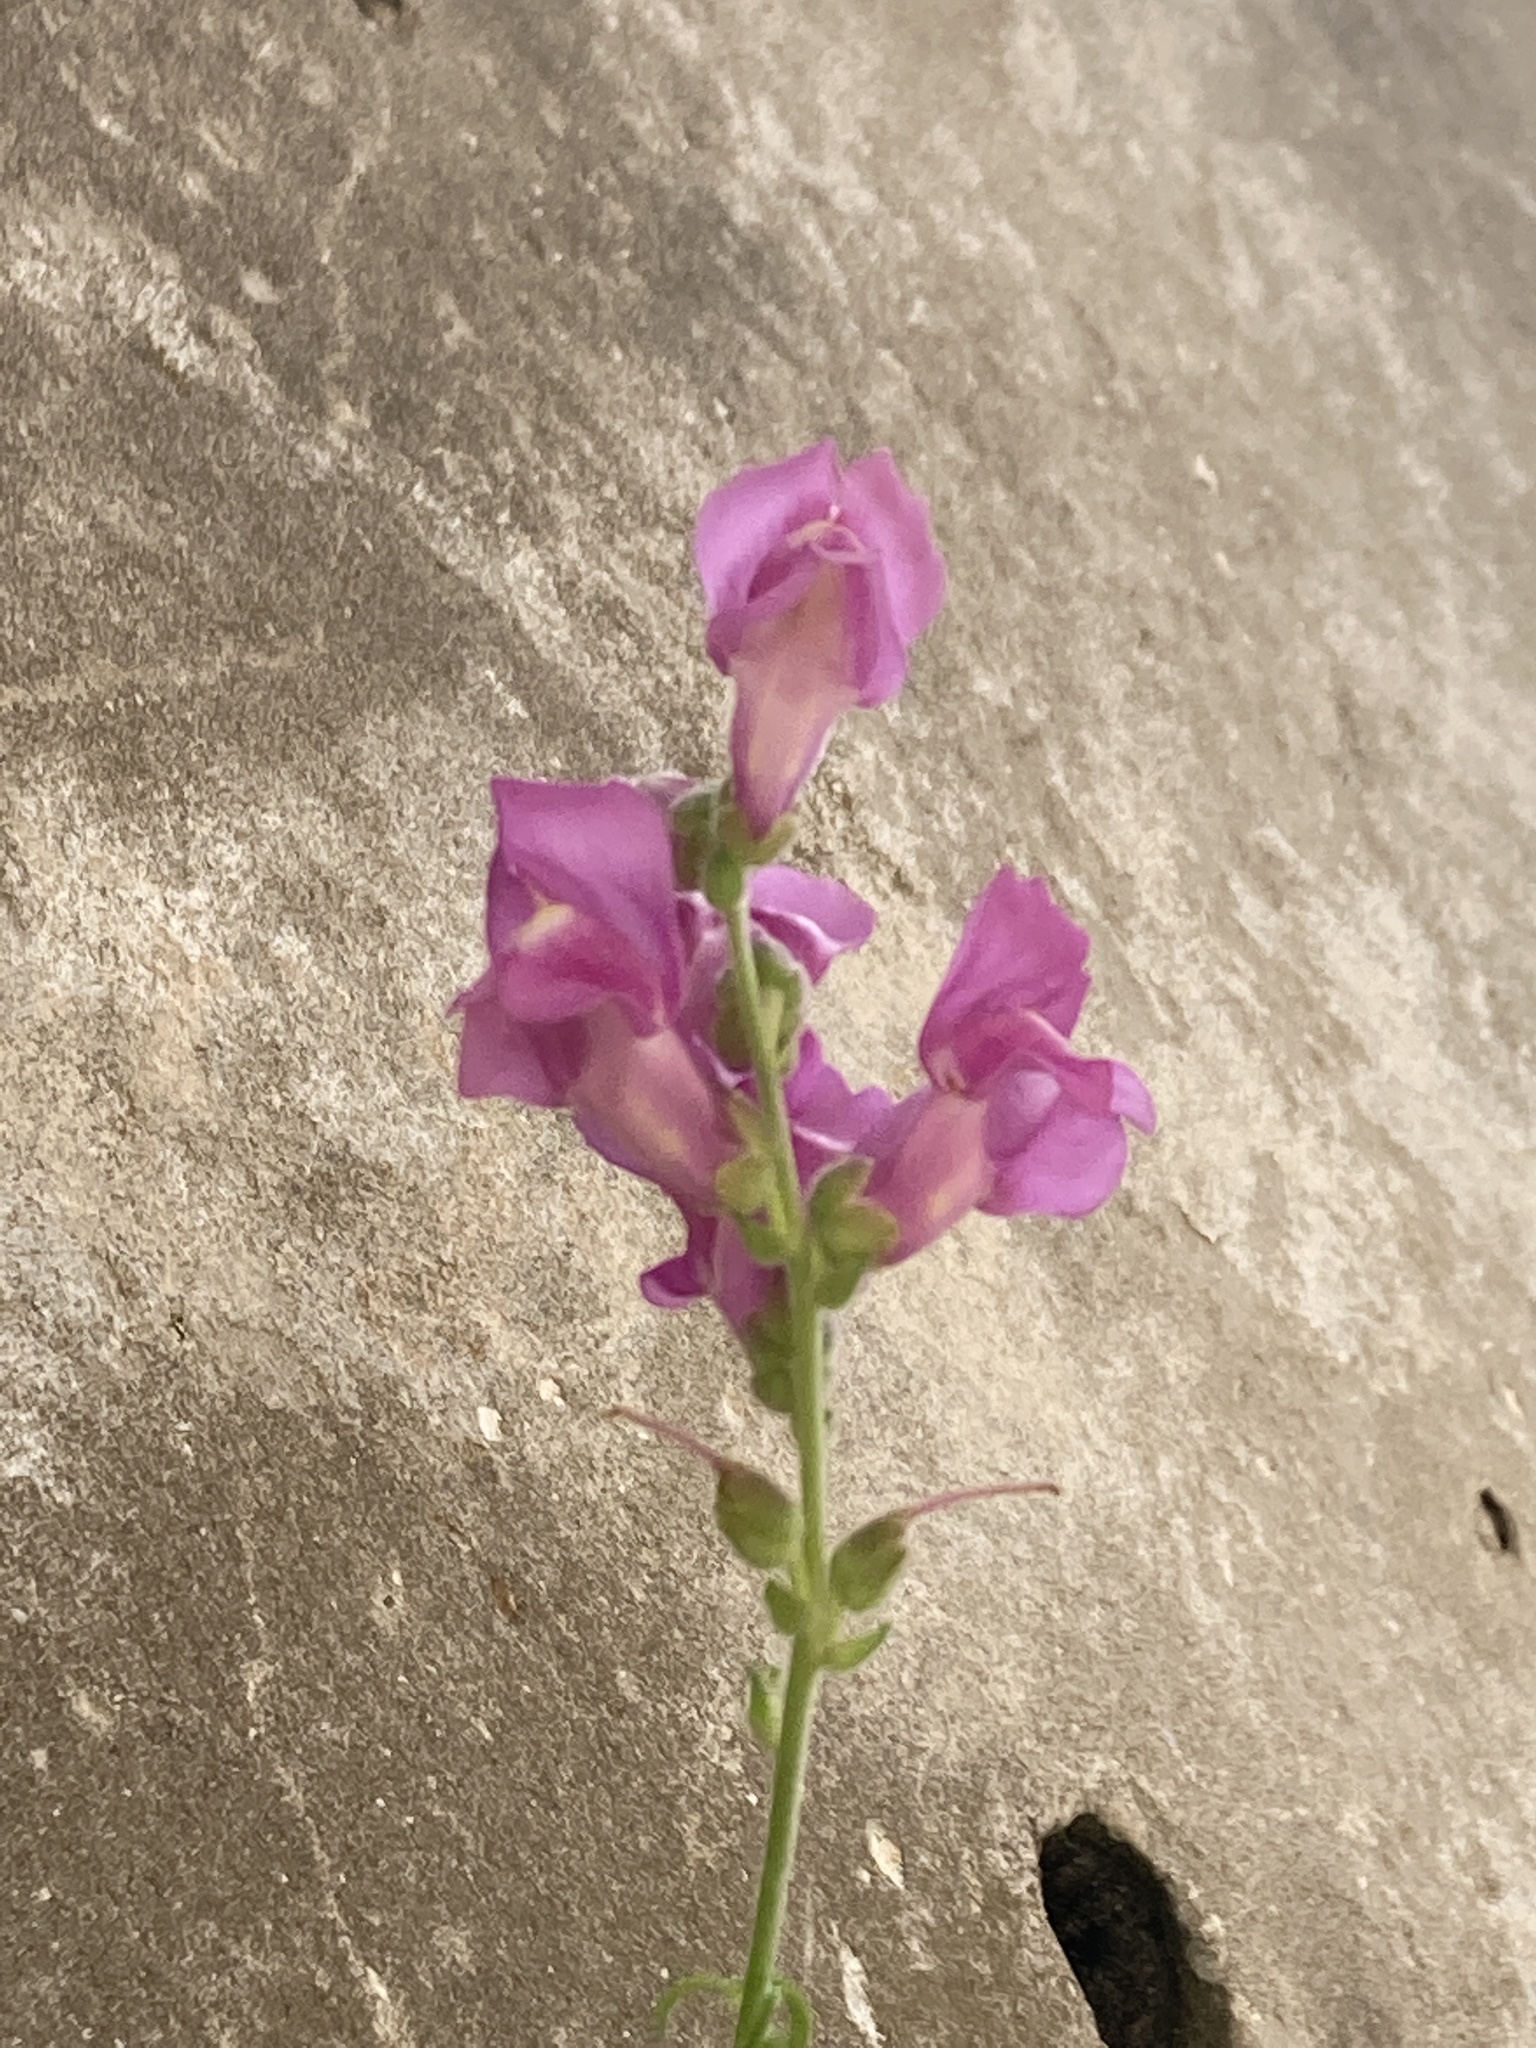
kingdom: Plantae
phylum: Tracheophyta
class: Magnoliopsida
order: Lamiales
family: Plantaginaceae
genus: Antirrhinum
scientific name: Antirrhinum majus
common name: Snapdragon
